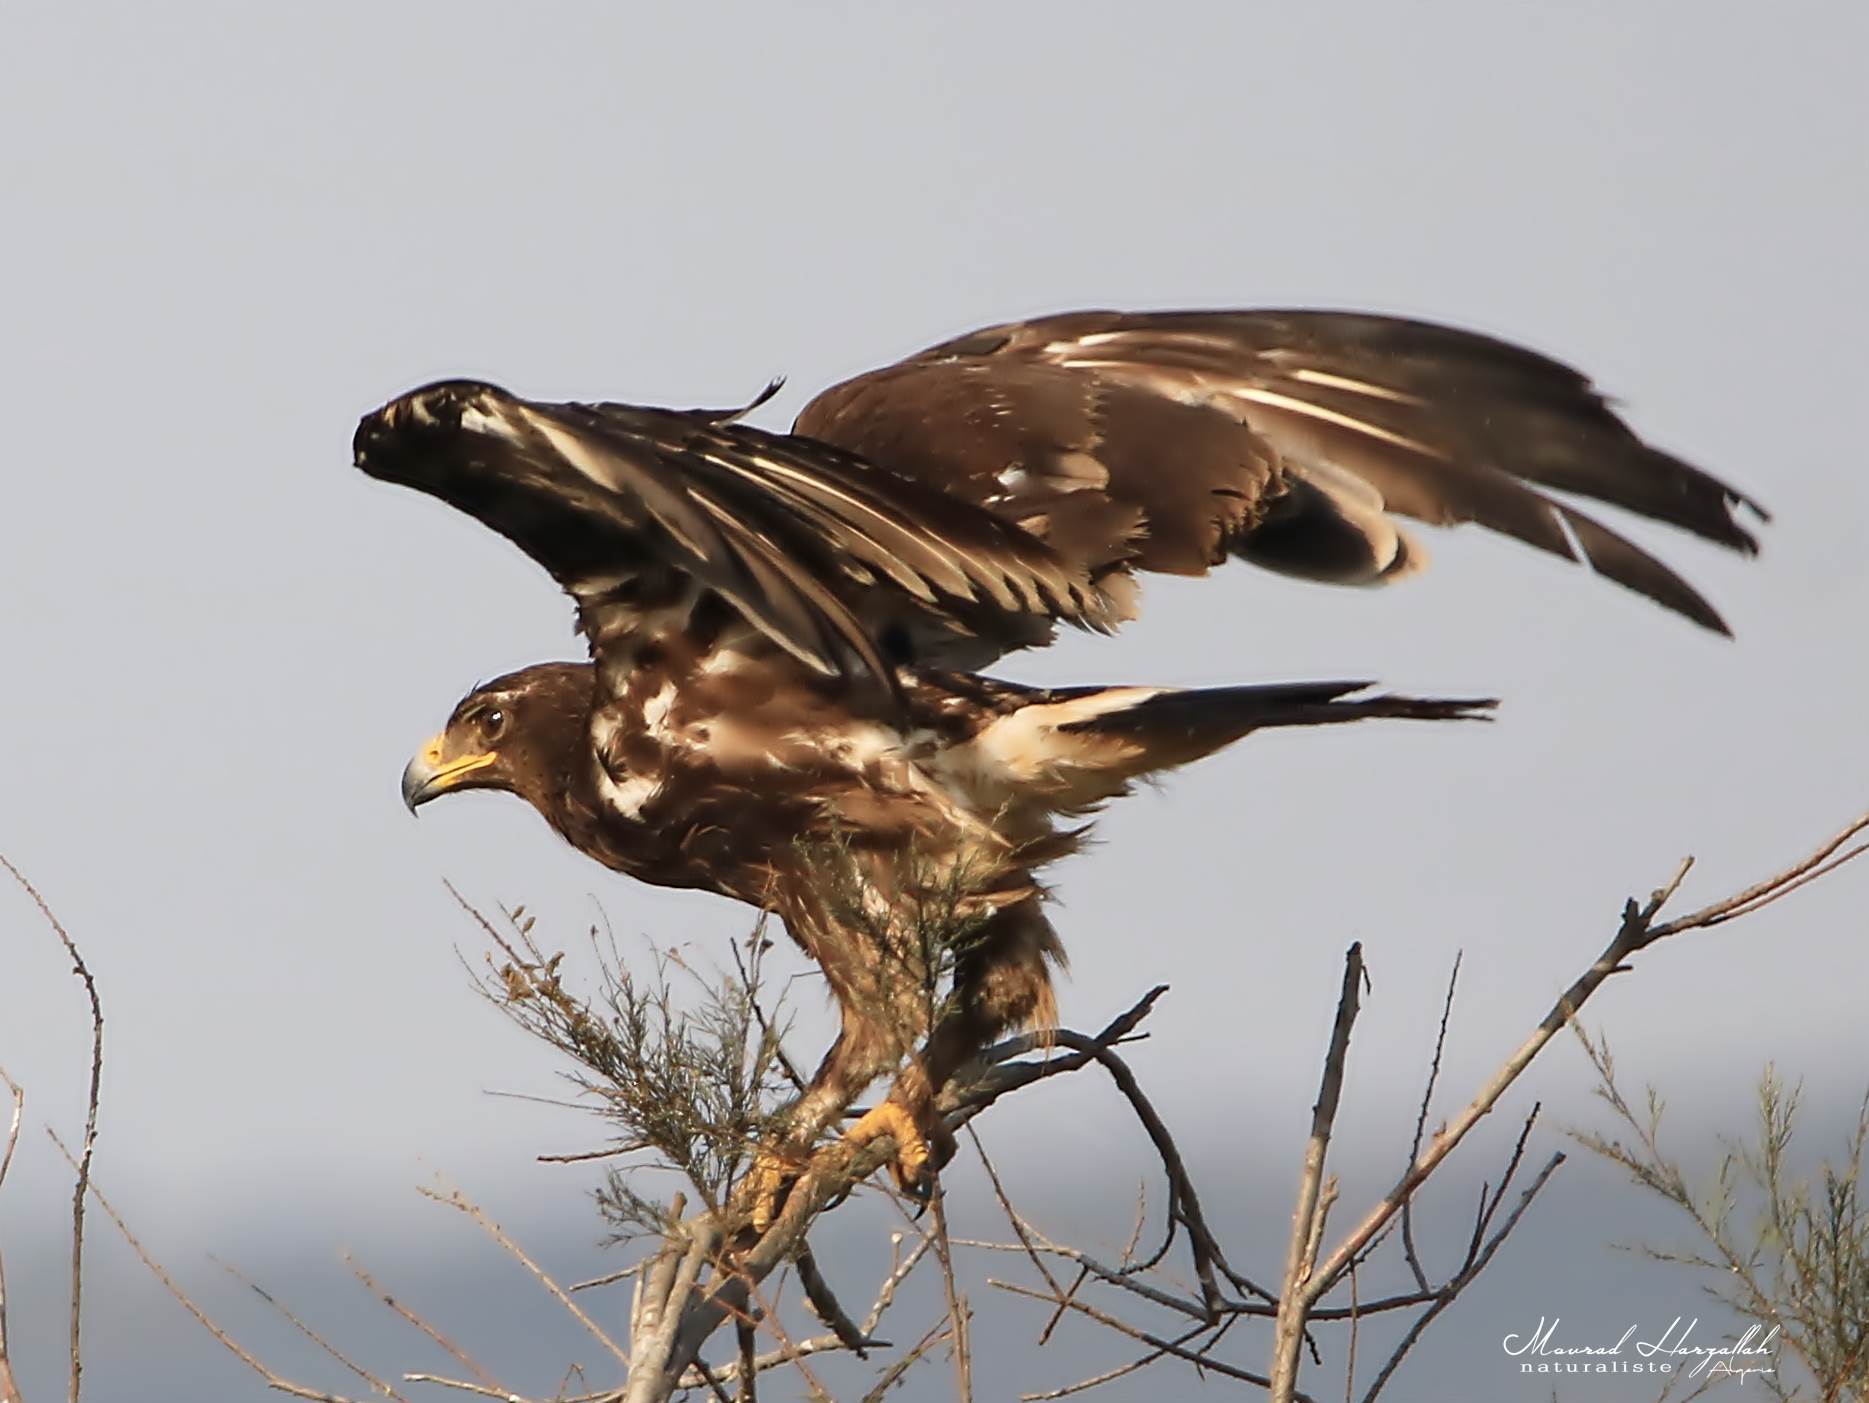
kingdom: Animalia
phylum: Chordata
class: Aves
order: Accipitriformes
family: Accipitridae
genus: Aquila
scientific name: Aquila clanga
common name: Greater spotted eagle
